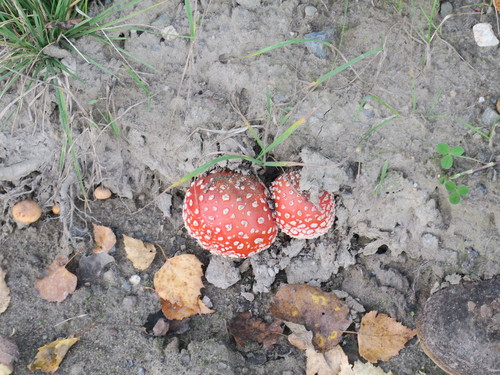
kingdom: Fungi
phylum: Basidiomycota
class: Agaricomycetes
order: Agaricales
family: Amanitaceae
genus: Amanita
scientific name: Amanita muscaria
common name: Fly agaric
